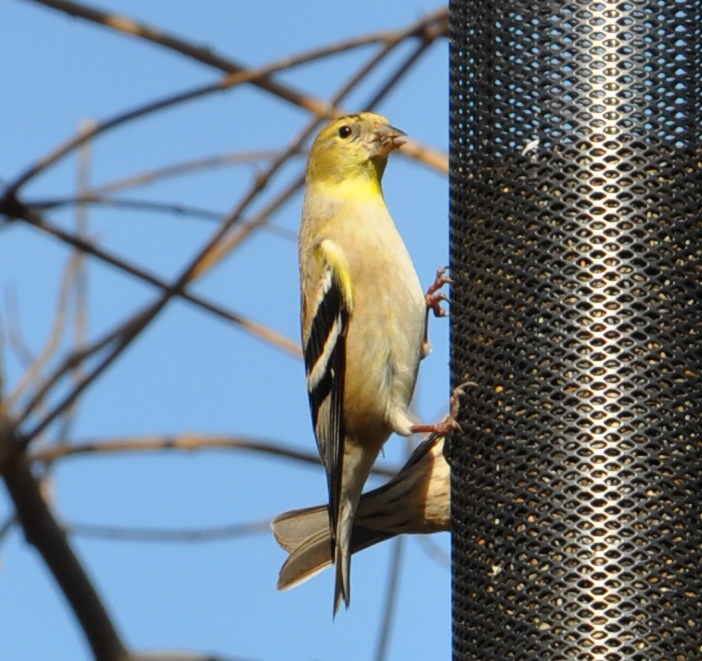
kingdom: Animalia
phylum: Chordata
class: Aves
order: Passeriformes
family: Fringillidae
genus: Spinus
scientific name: Spinus tristis
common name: American goldfinch
